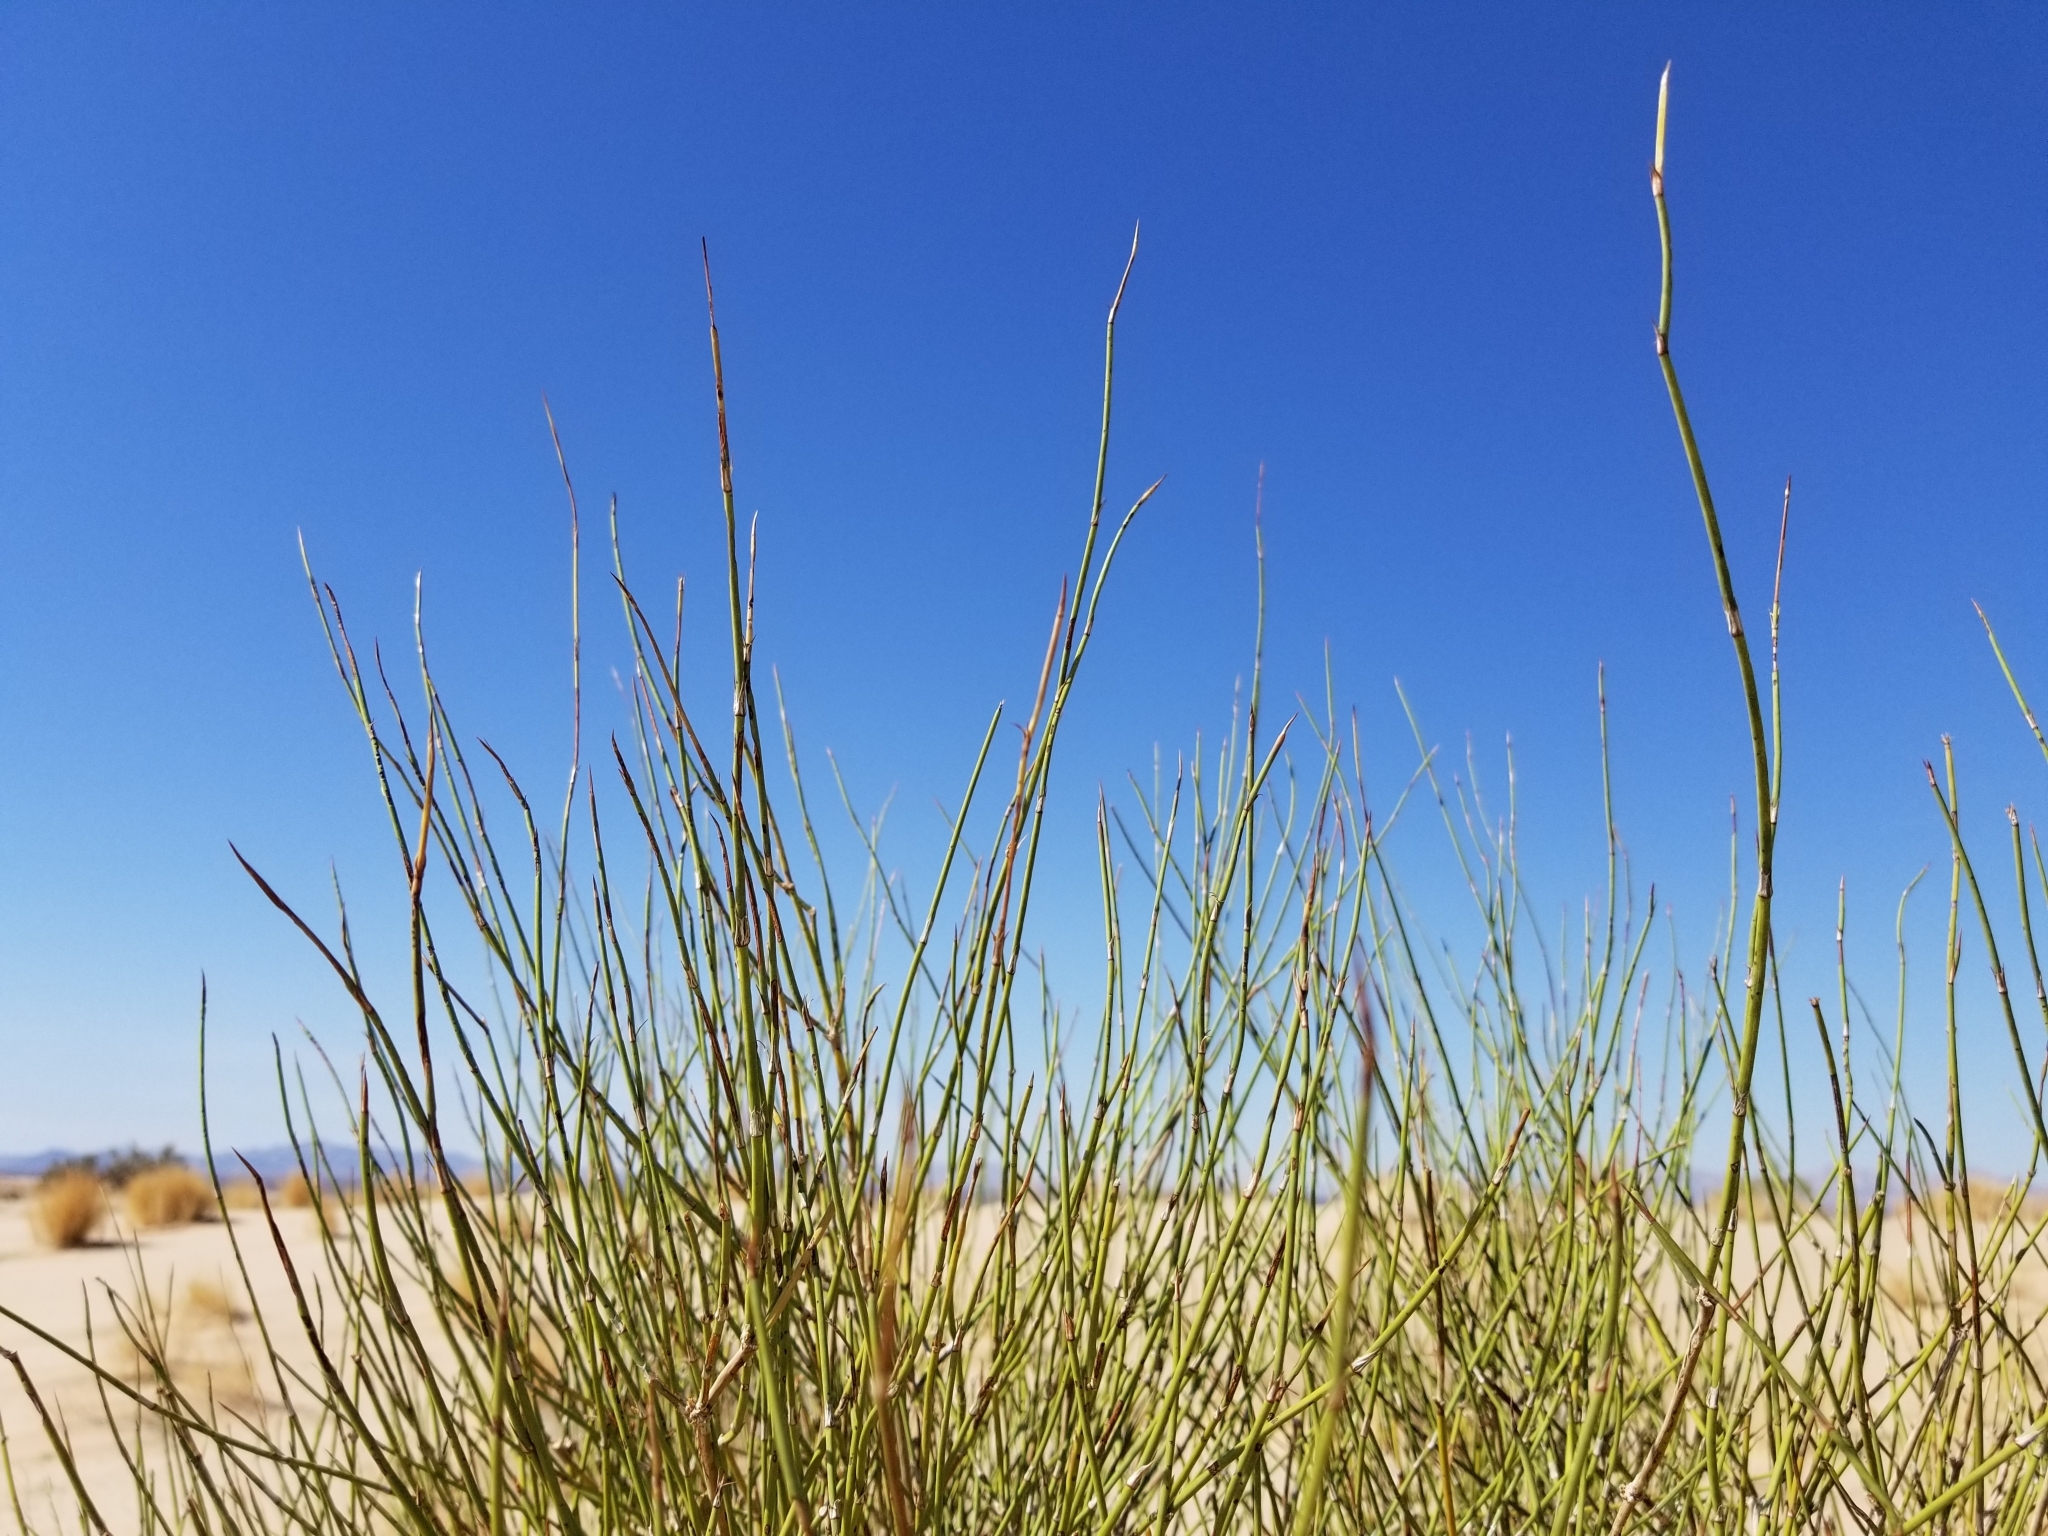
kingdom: Plantae
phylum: Tracheophyta
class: Gnetopsida
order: Ephedrales
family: Ephedraceae
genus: Ephedra
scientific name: Ephedra trifurca
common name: Mexican-tea
